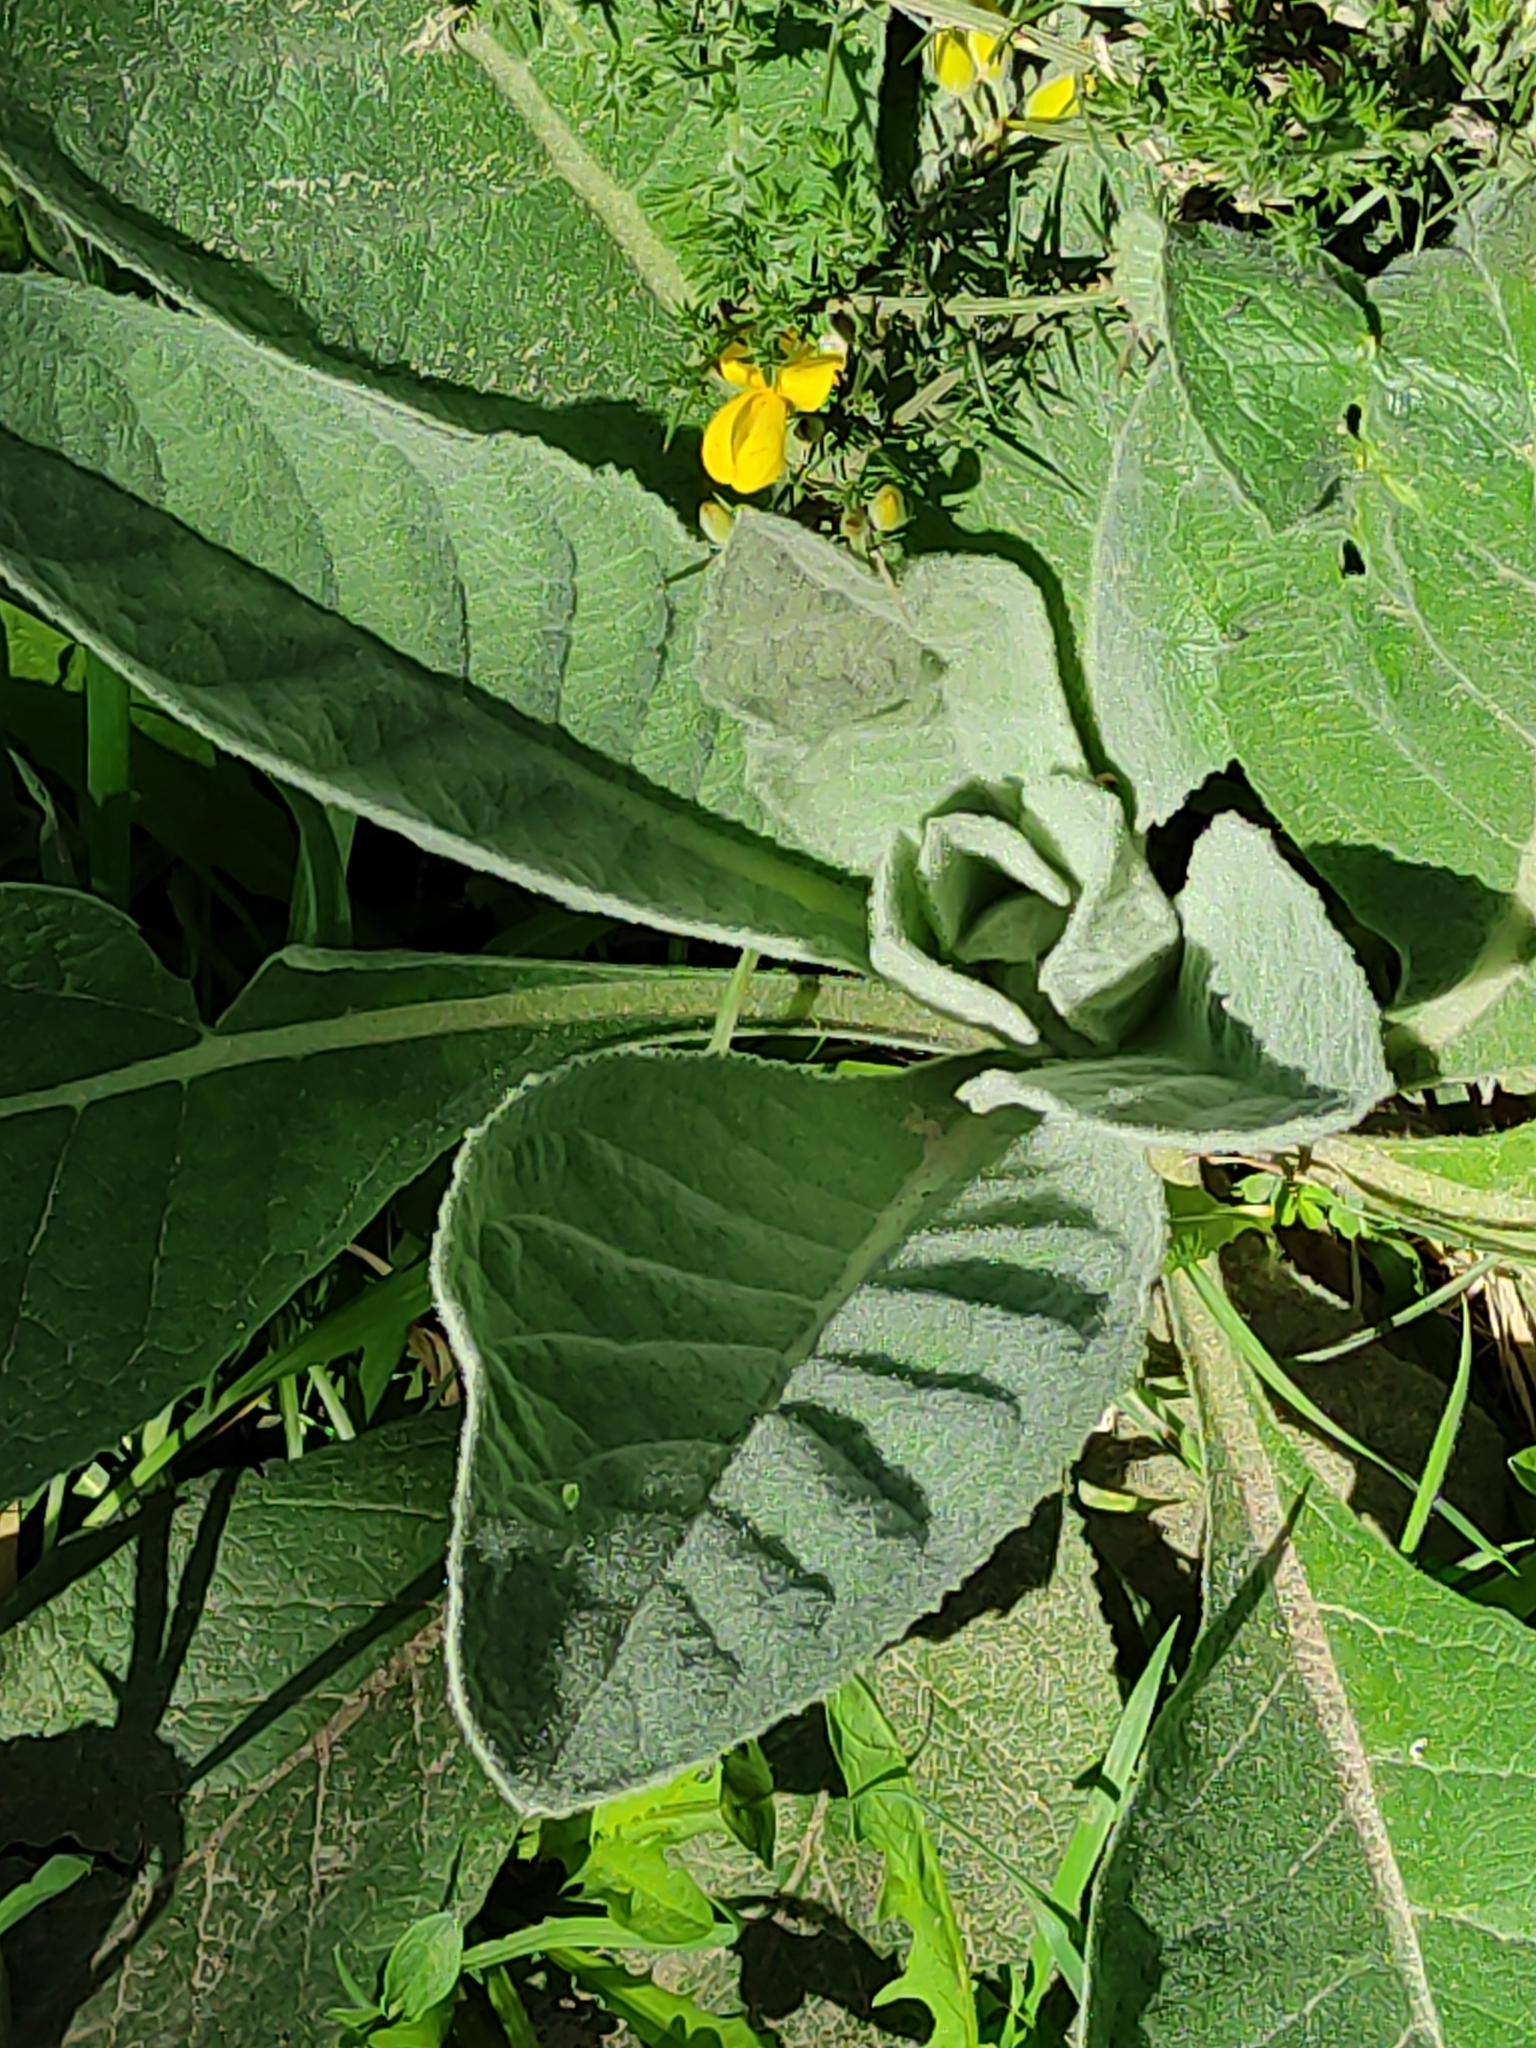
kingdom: Plantae
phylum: Tracheophyta
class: Magnoliopsida
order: Lamiales
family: Scrophulariaceae
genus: Verbascum
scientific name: Verbascum thapsus
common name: Common mullein
